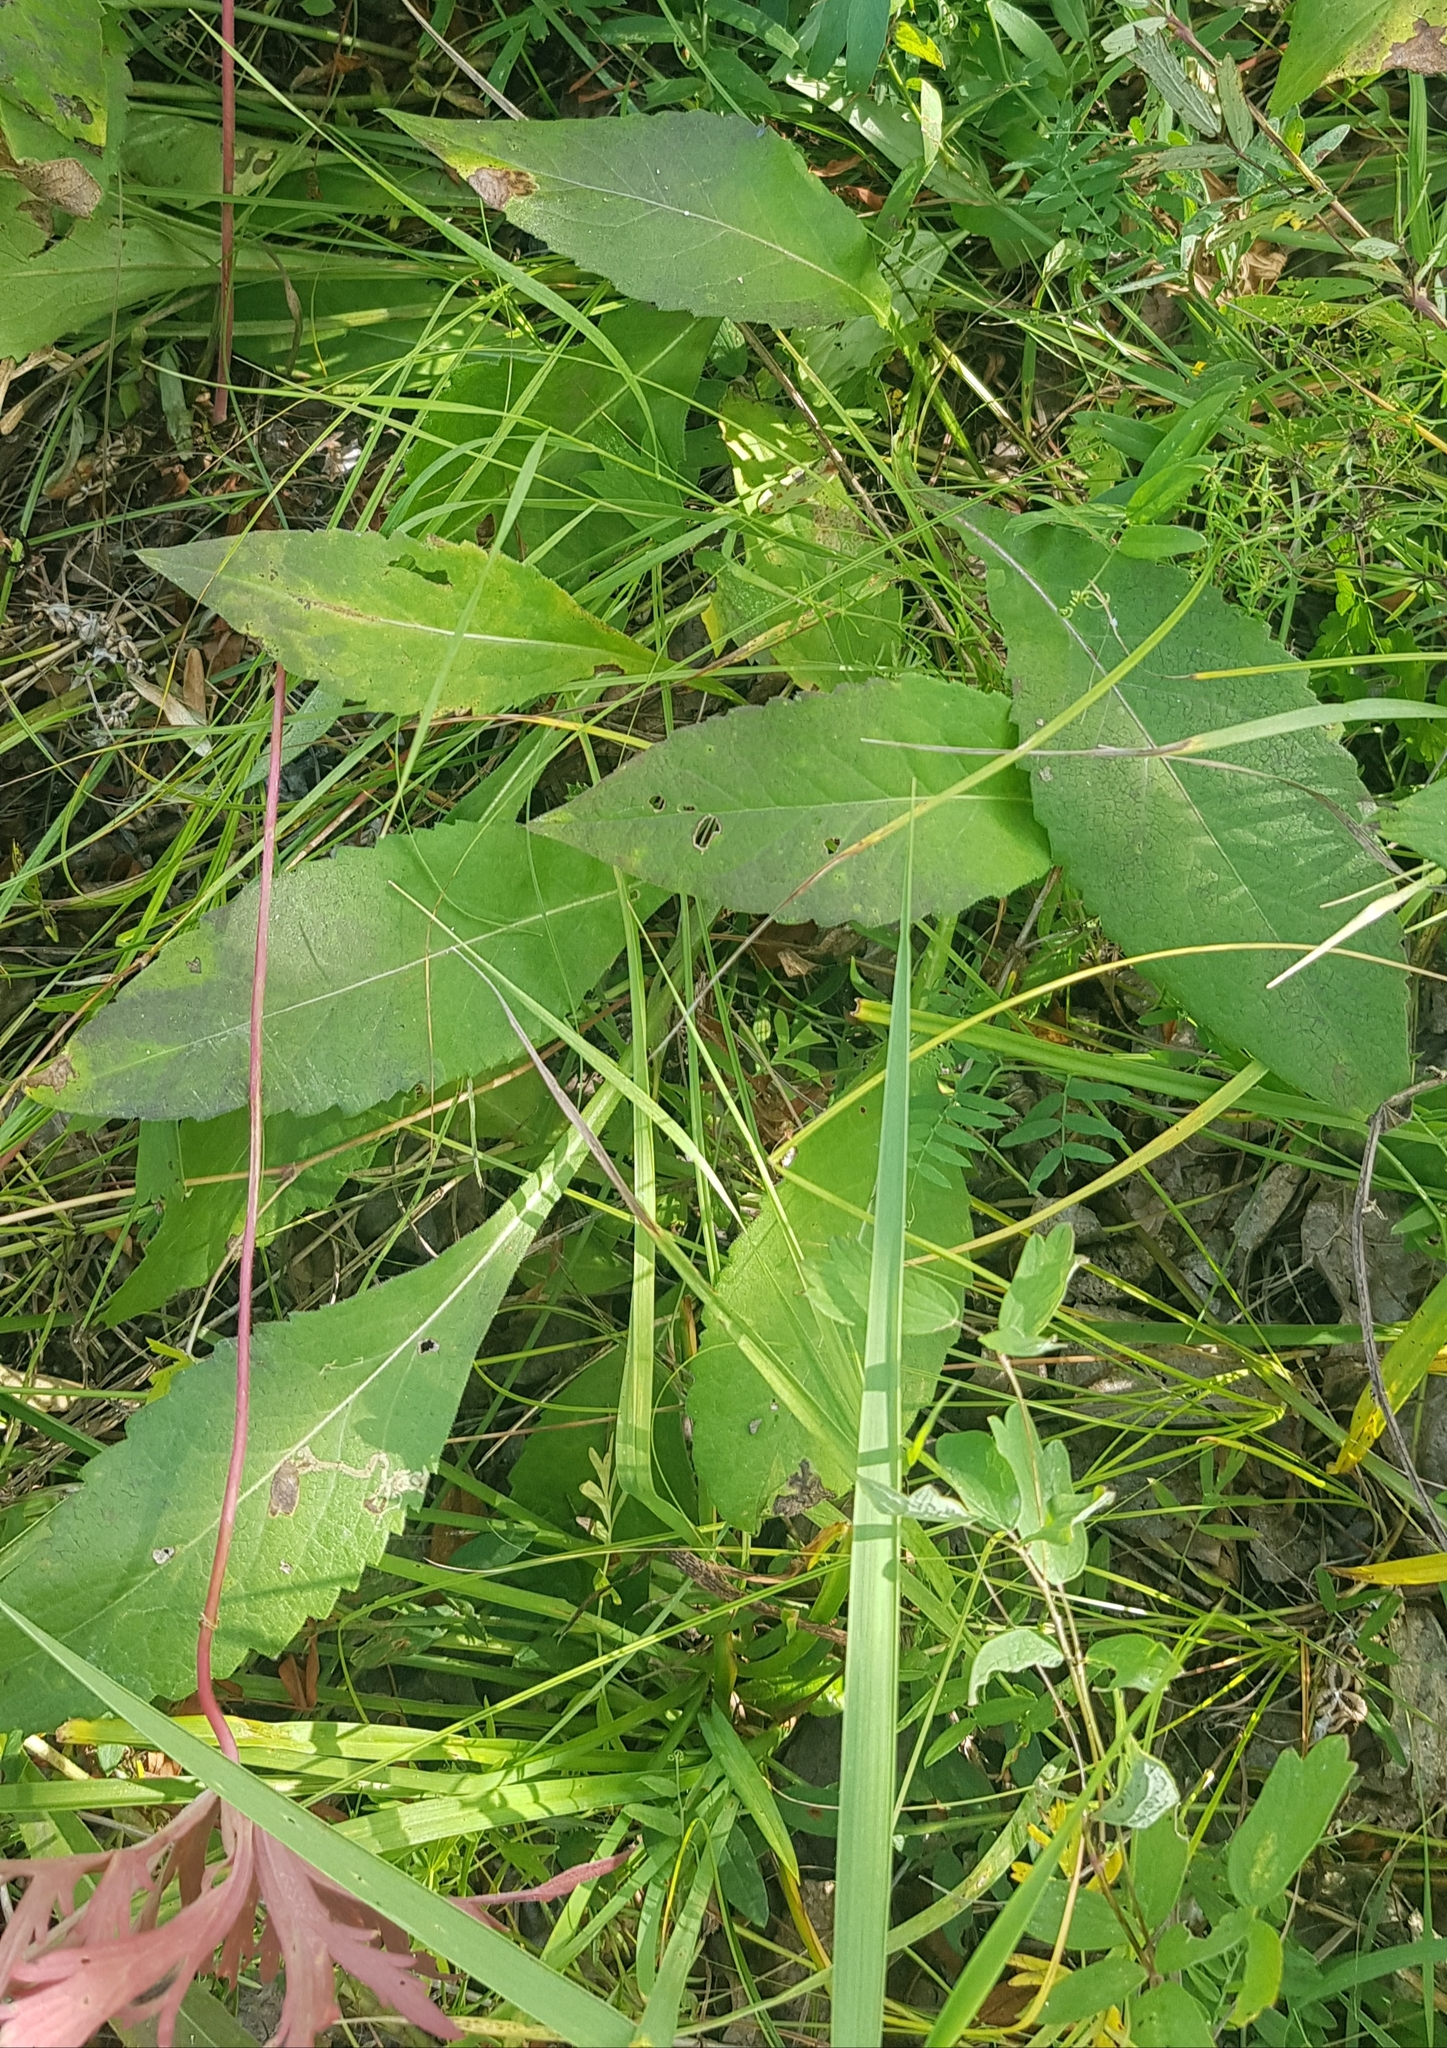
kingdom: Plantae
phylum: Tracheophyta
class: Magnoliopsida
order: Asterales
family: Asteraceae
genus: Solidago
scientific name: Solidago dahurica
